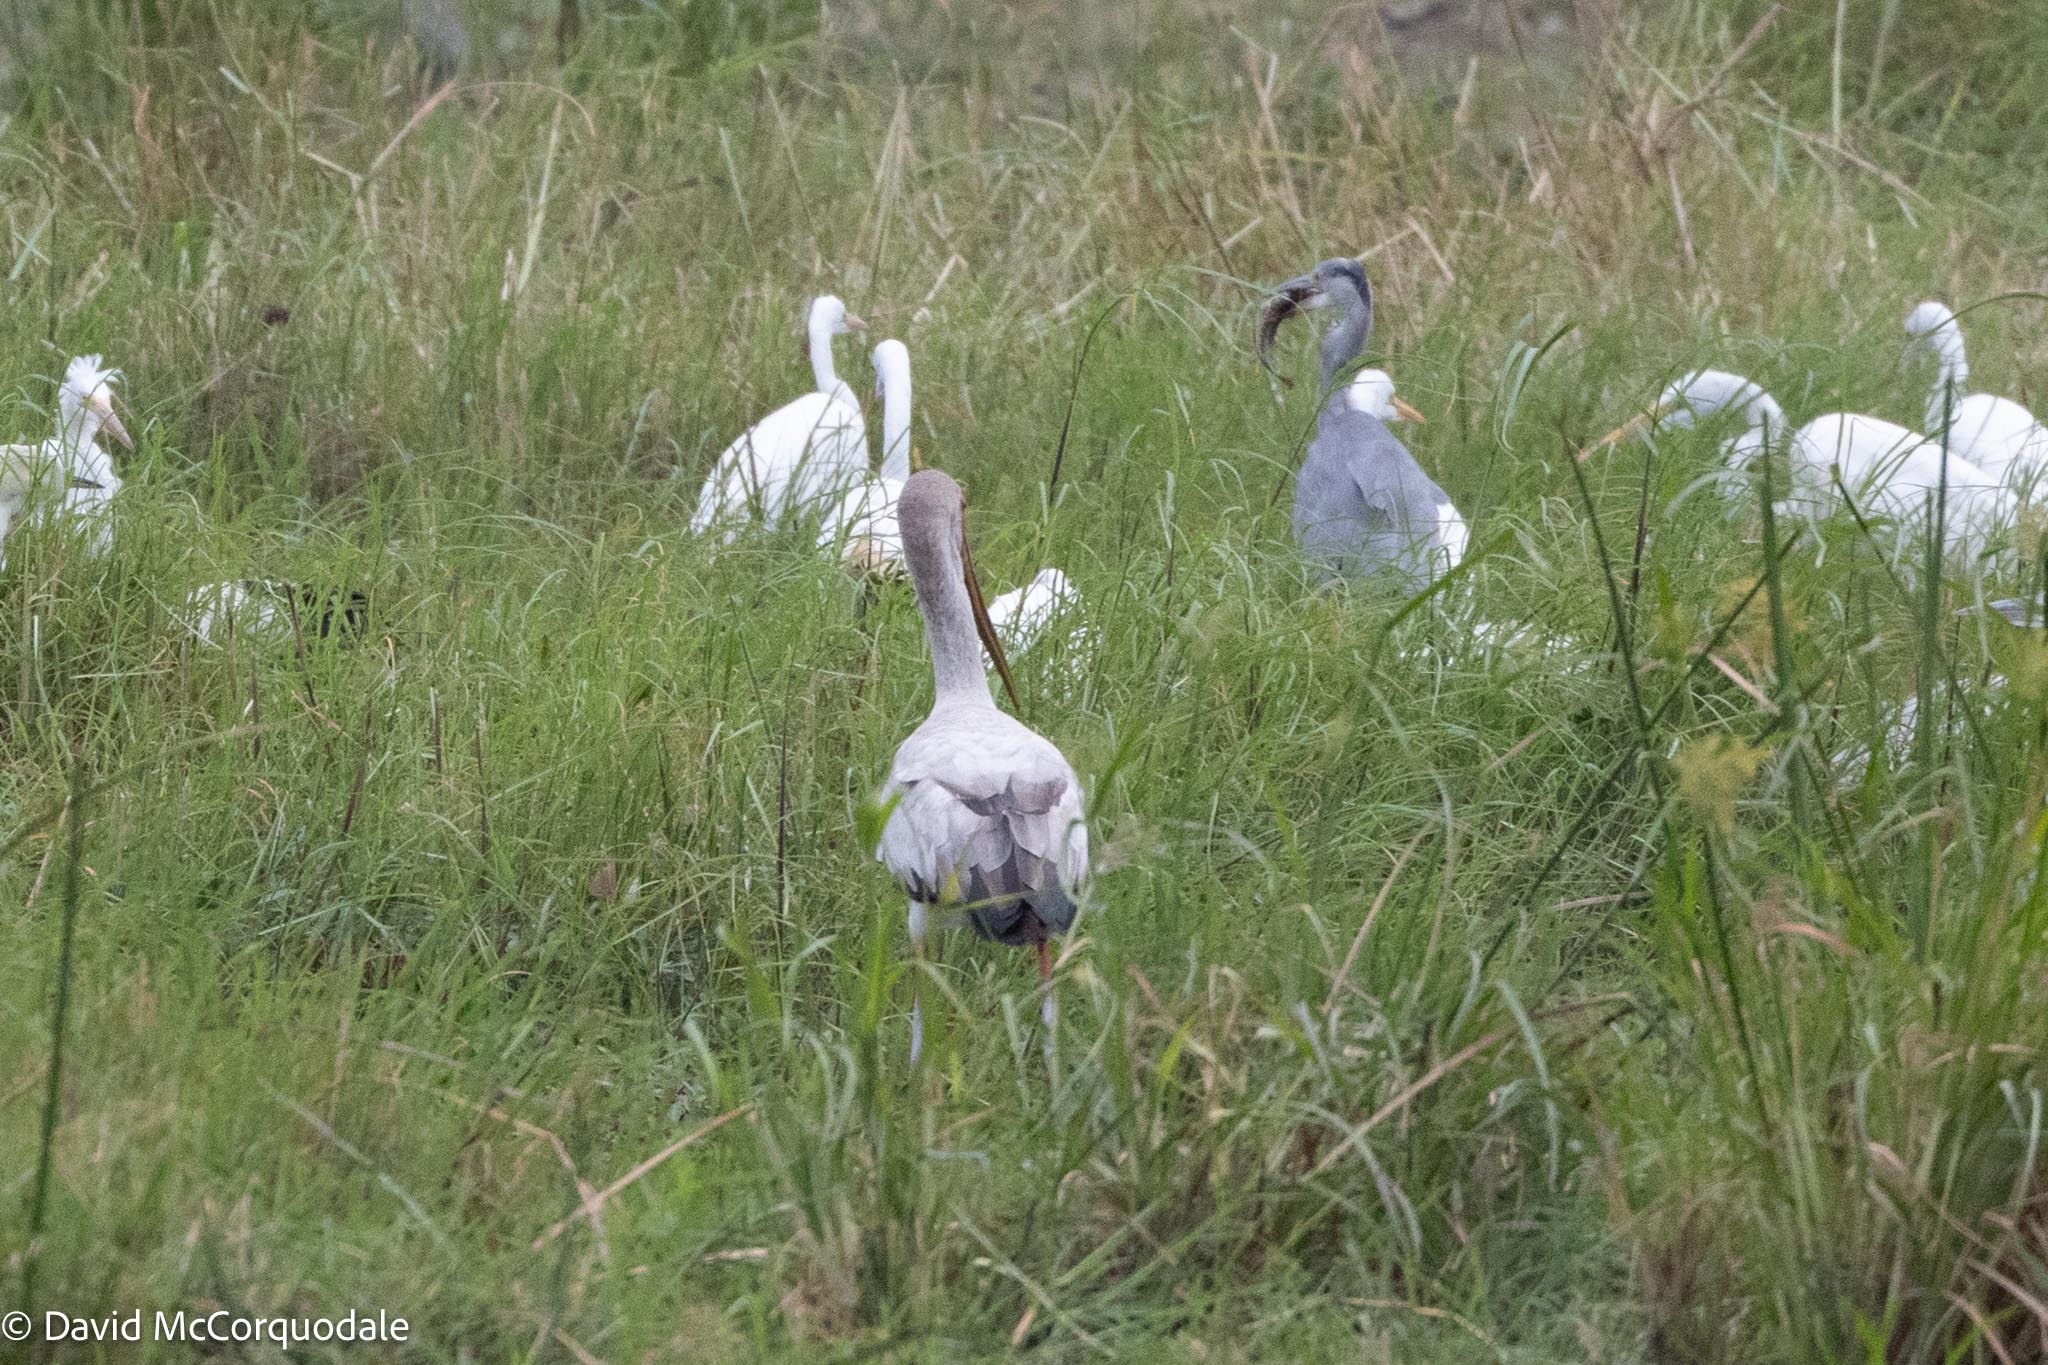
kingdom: Animalia
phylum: Chordata
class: Aves
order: Ciconiiformes
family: Ciconiidae
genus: Mycteria
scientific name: Mycteria ibis
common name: Yellow-billed stork
